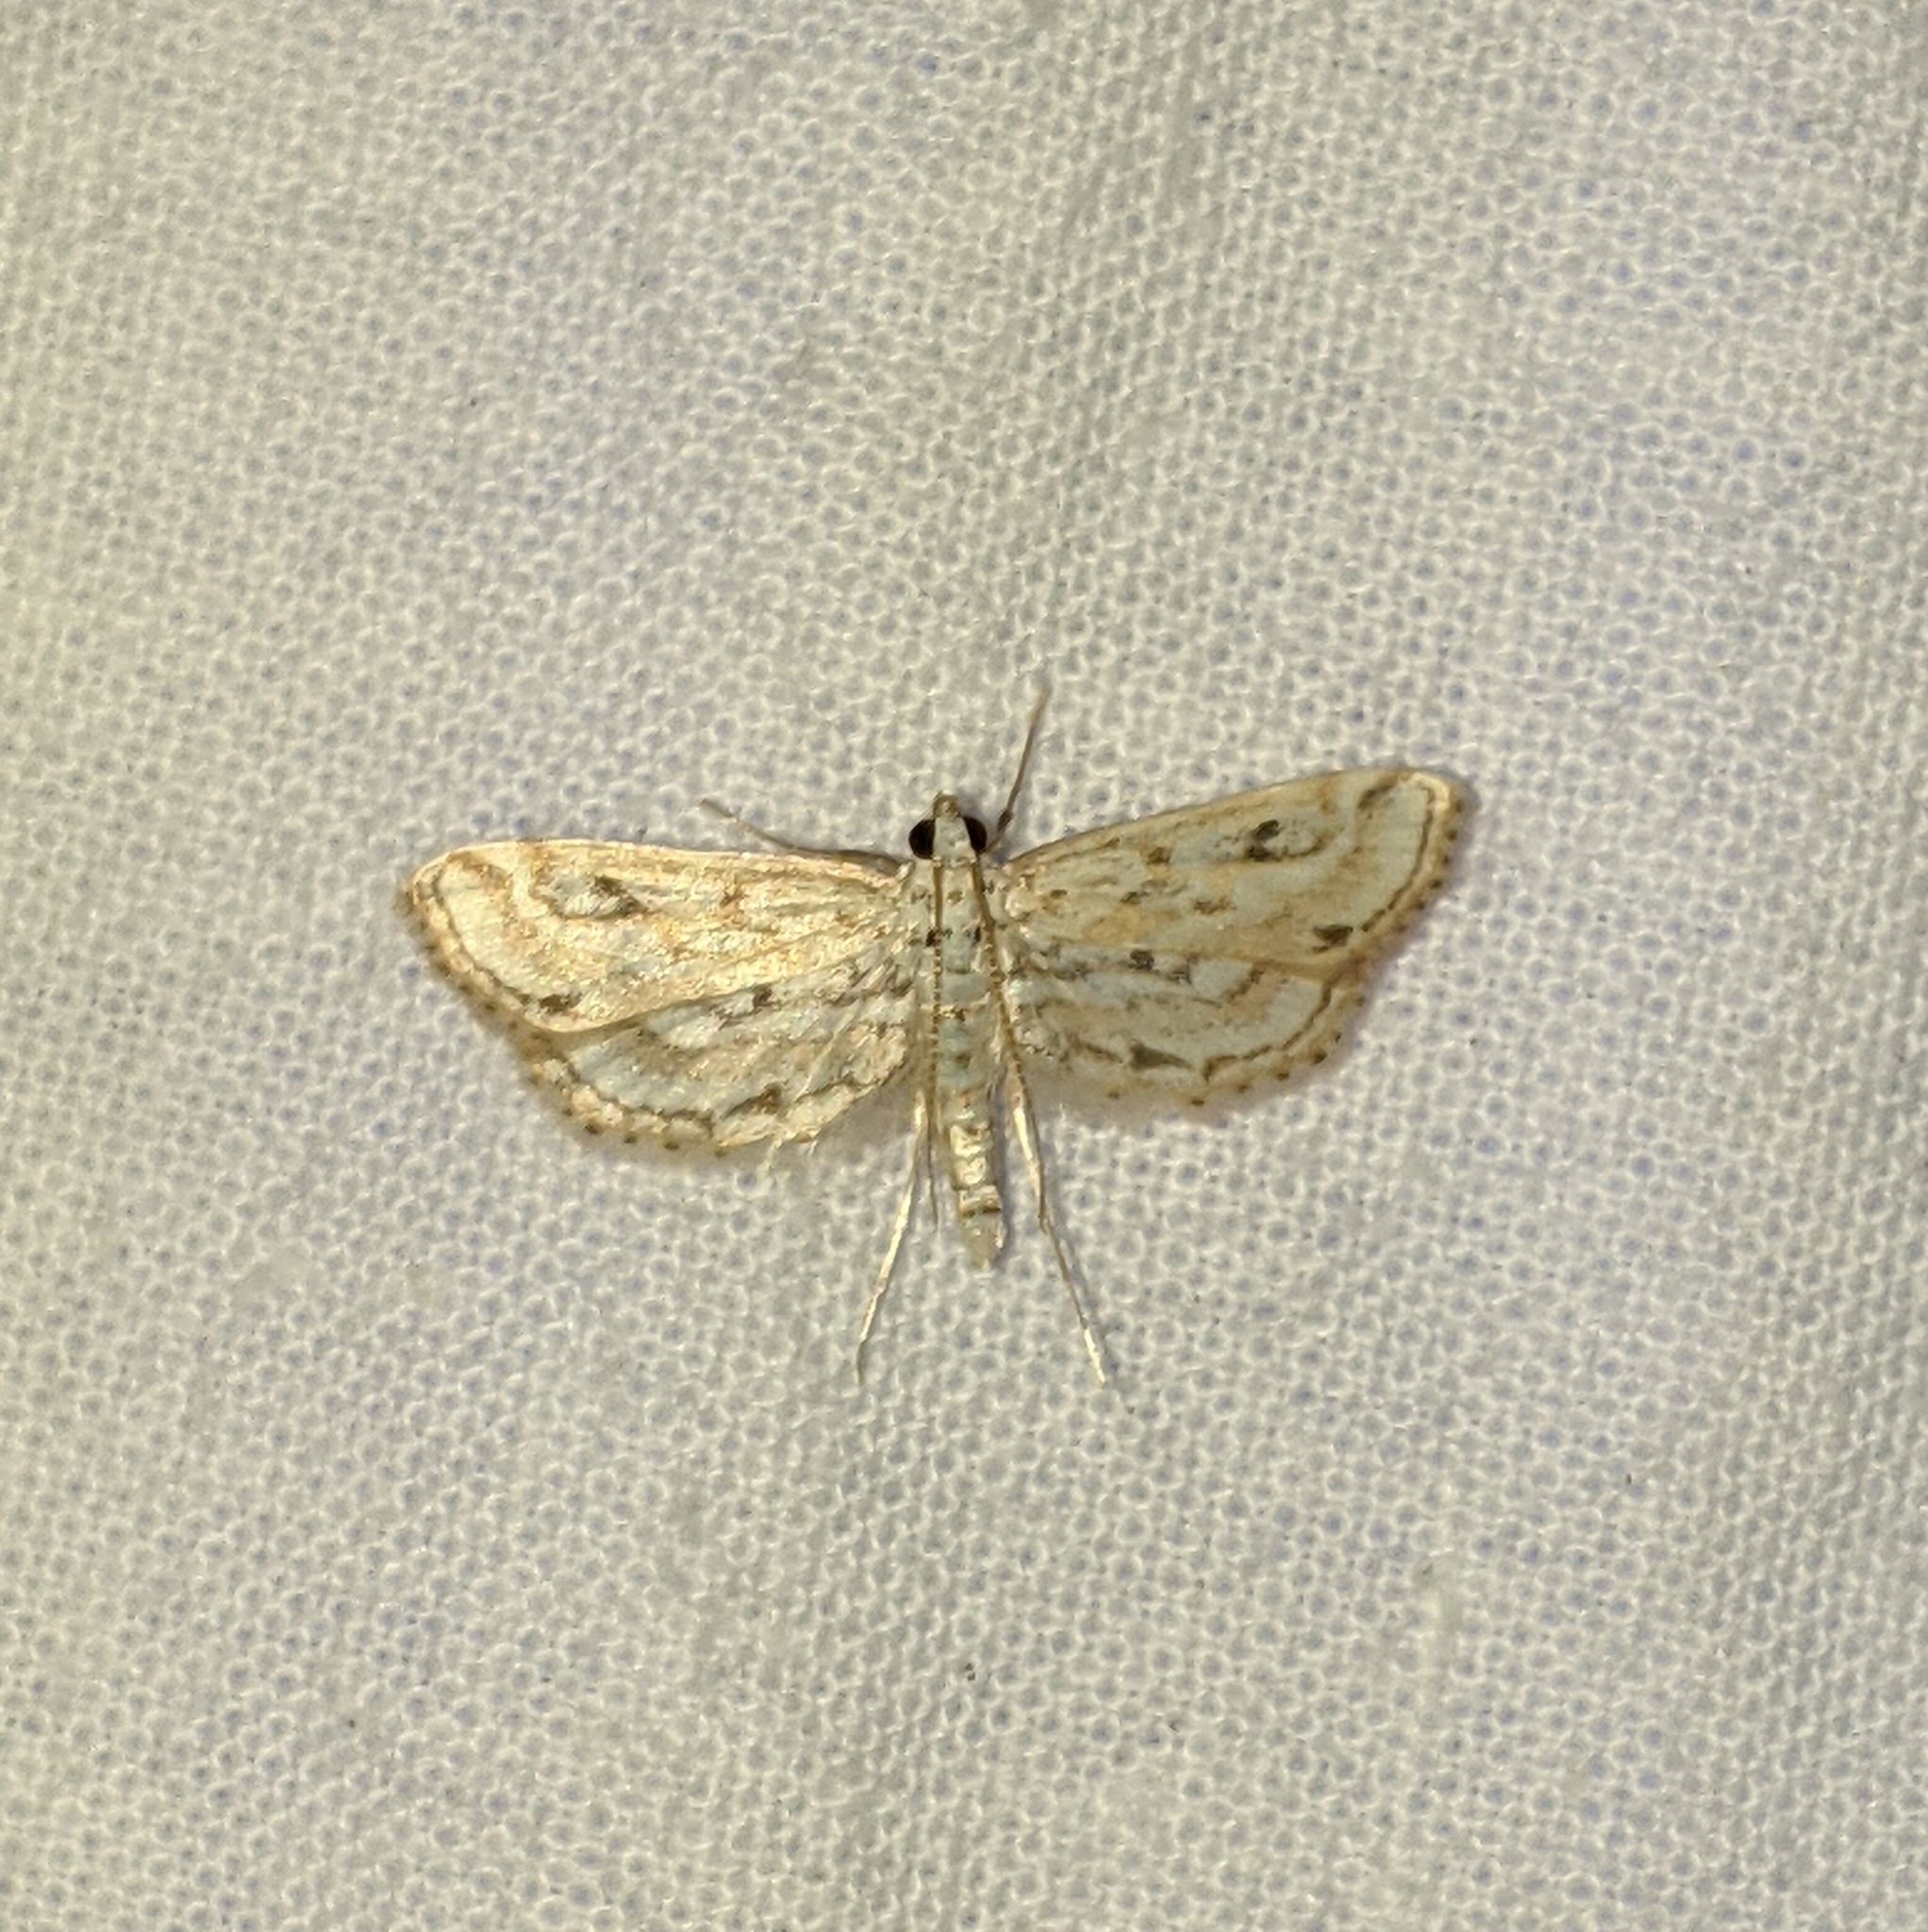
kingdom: Animalia
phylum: Arthropoda
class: Insecta
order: Lepidoptera
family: Crambidae
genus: Parapoynx
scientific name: Parapoynx allionealis
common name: Bladderwort casemaker
